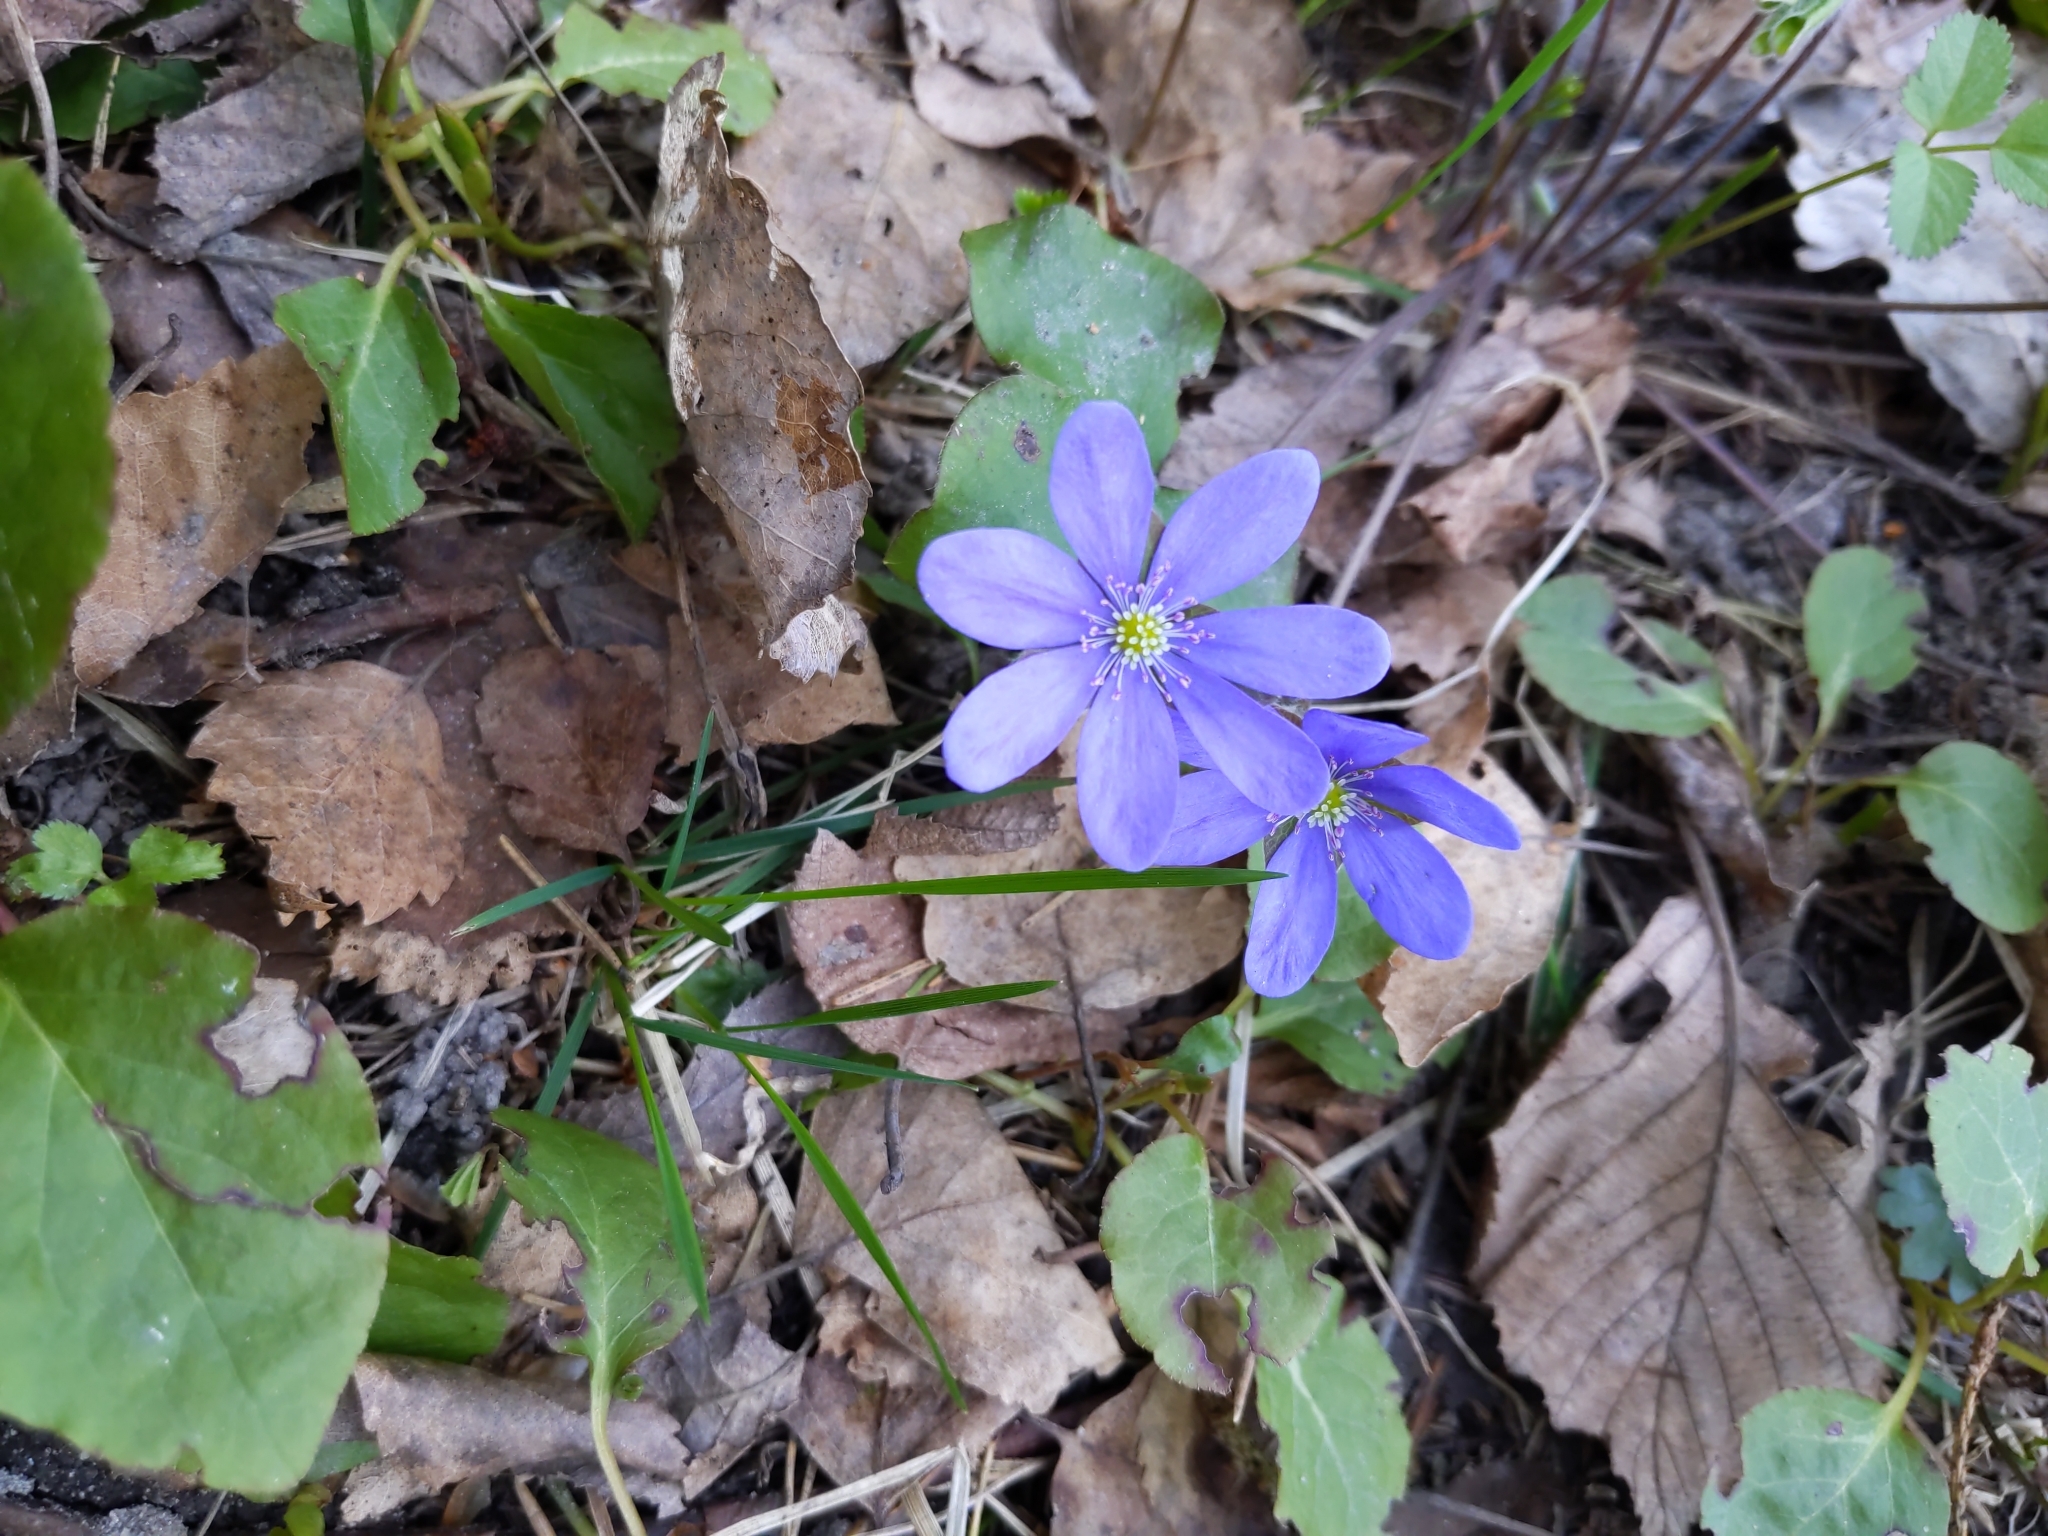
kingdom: Plantae
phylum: Tracheophyta
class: Magnoliopsida
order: Ranunculales
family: Ranunculaceae
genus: Hepatica
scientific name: Hepatica nobilis
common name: Liverleaf
